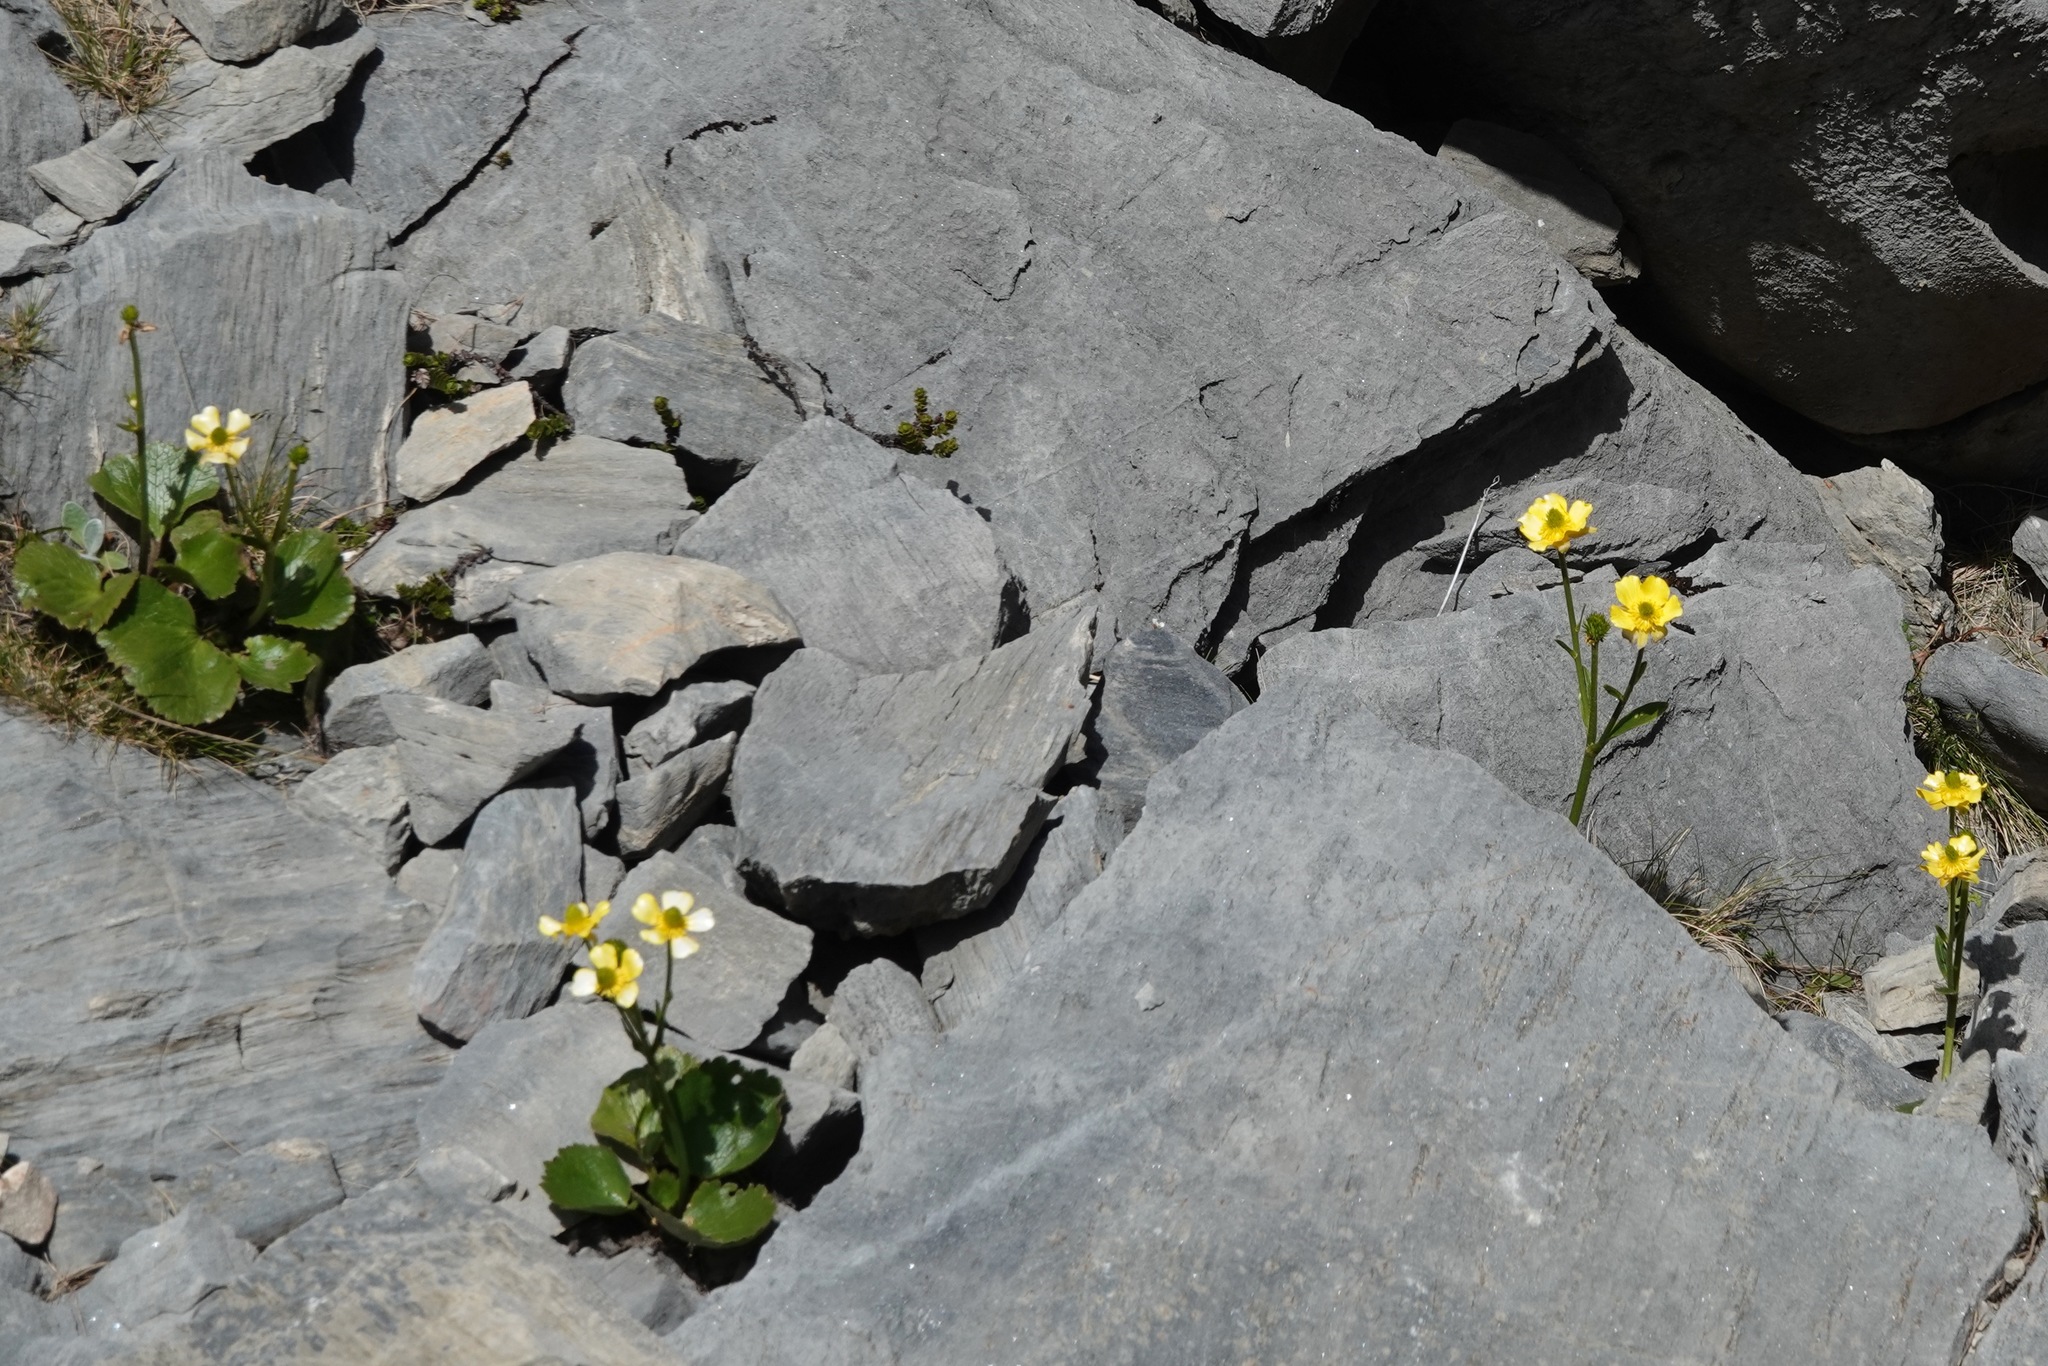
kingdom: Plantae
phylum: Tracheophyta
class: Magnoliopsida
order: Ranunculales
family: Ranunculaceae
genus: Ranunculus
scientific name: Ranunculus insignis
